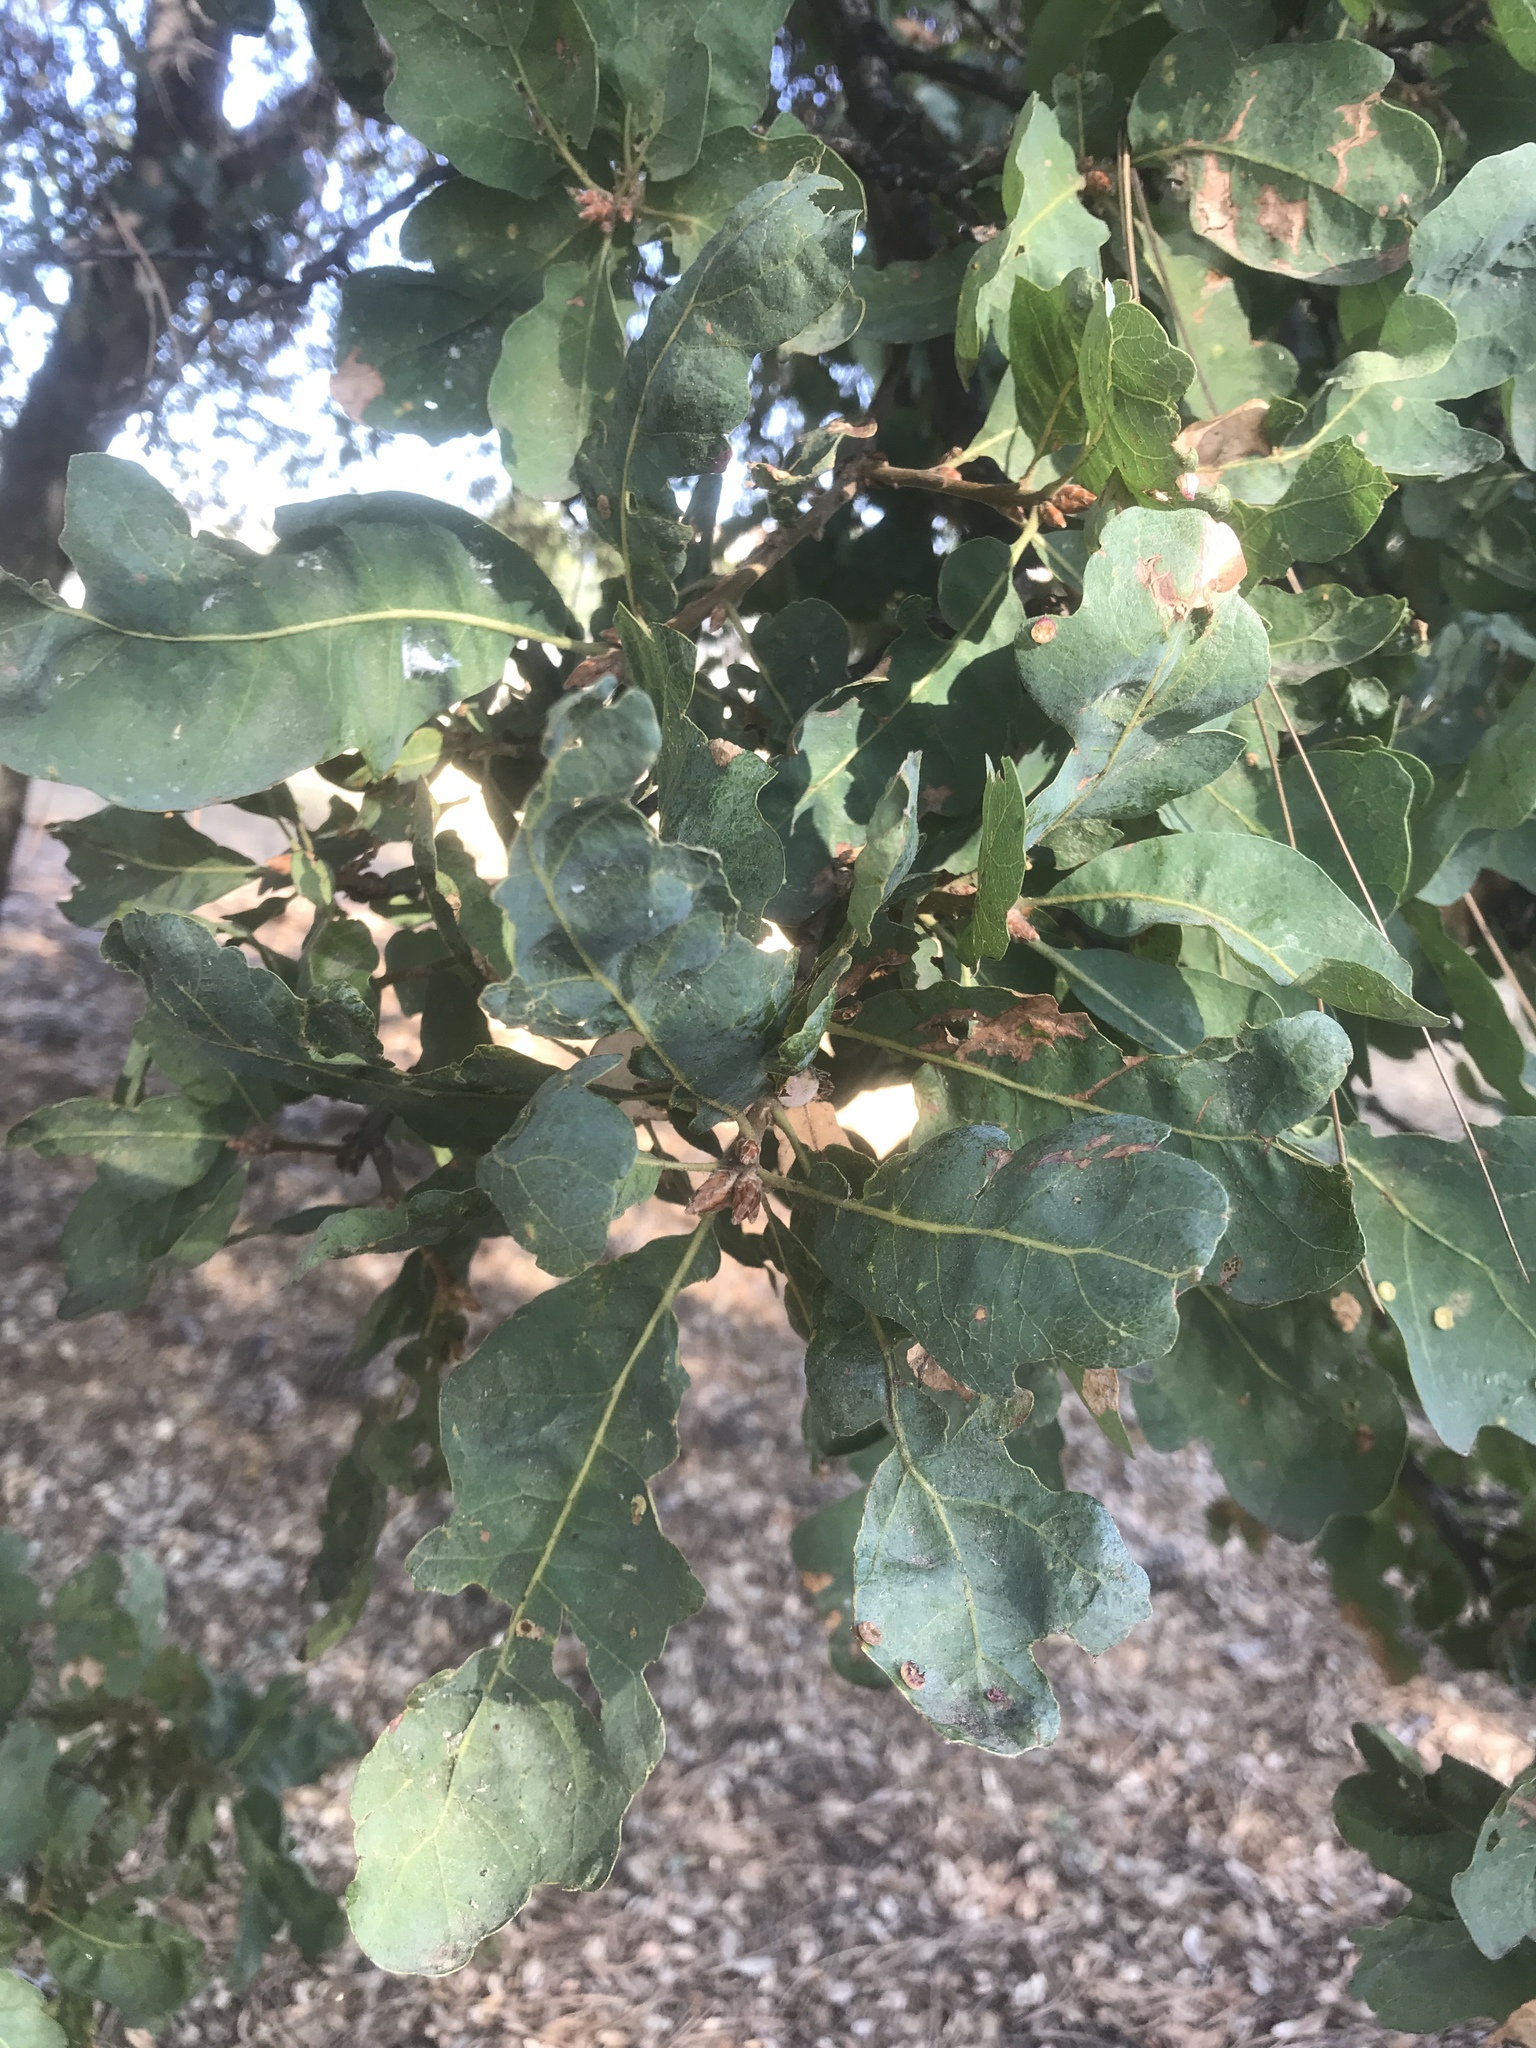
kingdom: Plantae
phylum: Tracheophyta
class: Magnoliopsida
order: Fagales
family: Fagaceae
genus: Quercus
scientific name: Quercus douglasii
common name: Blue oak
